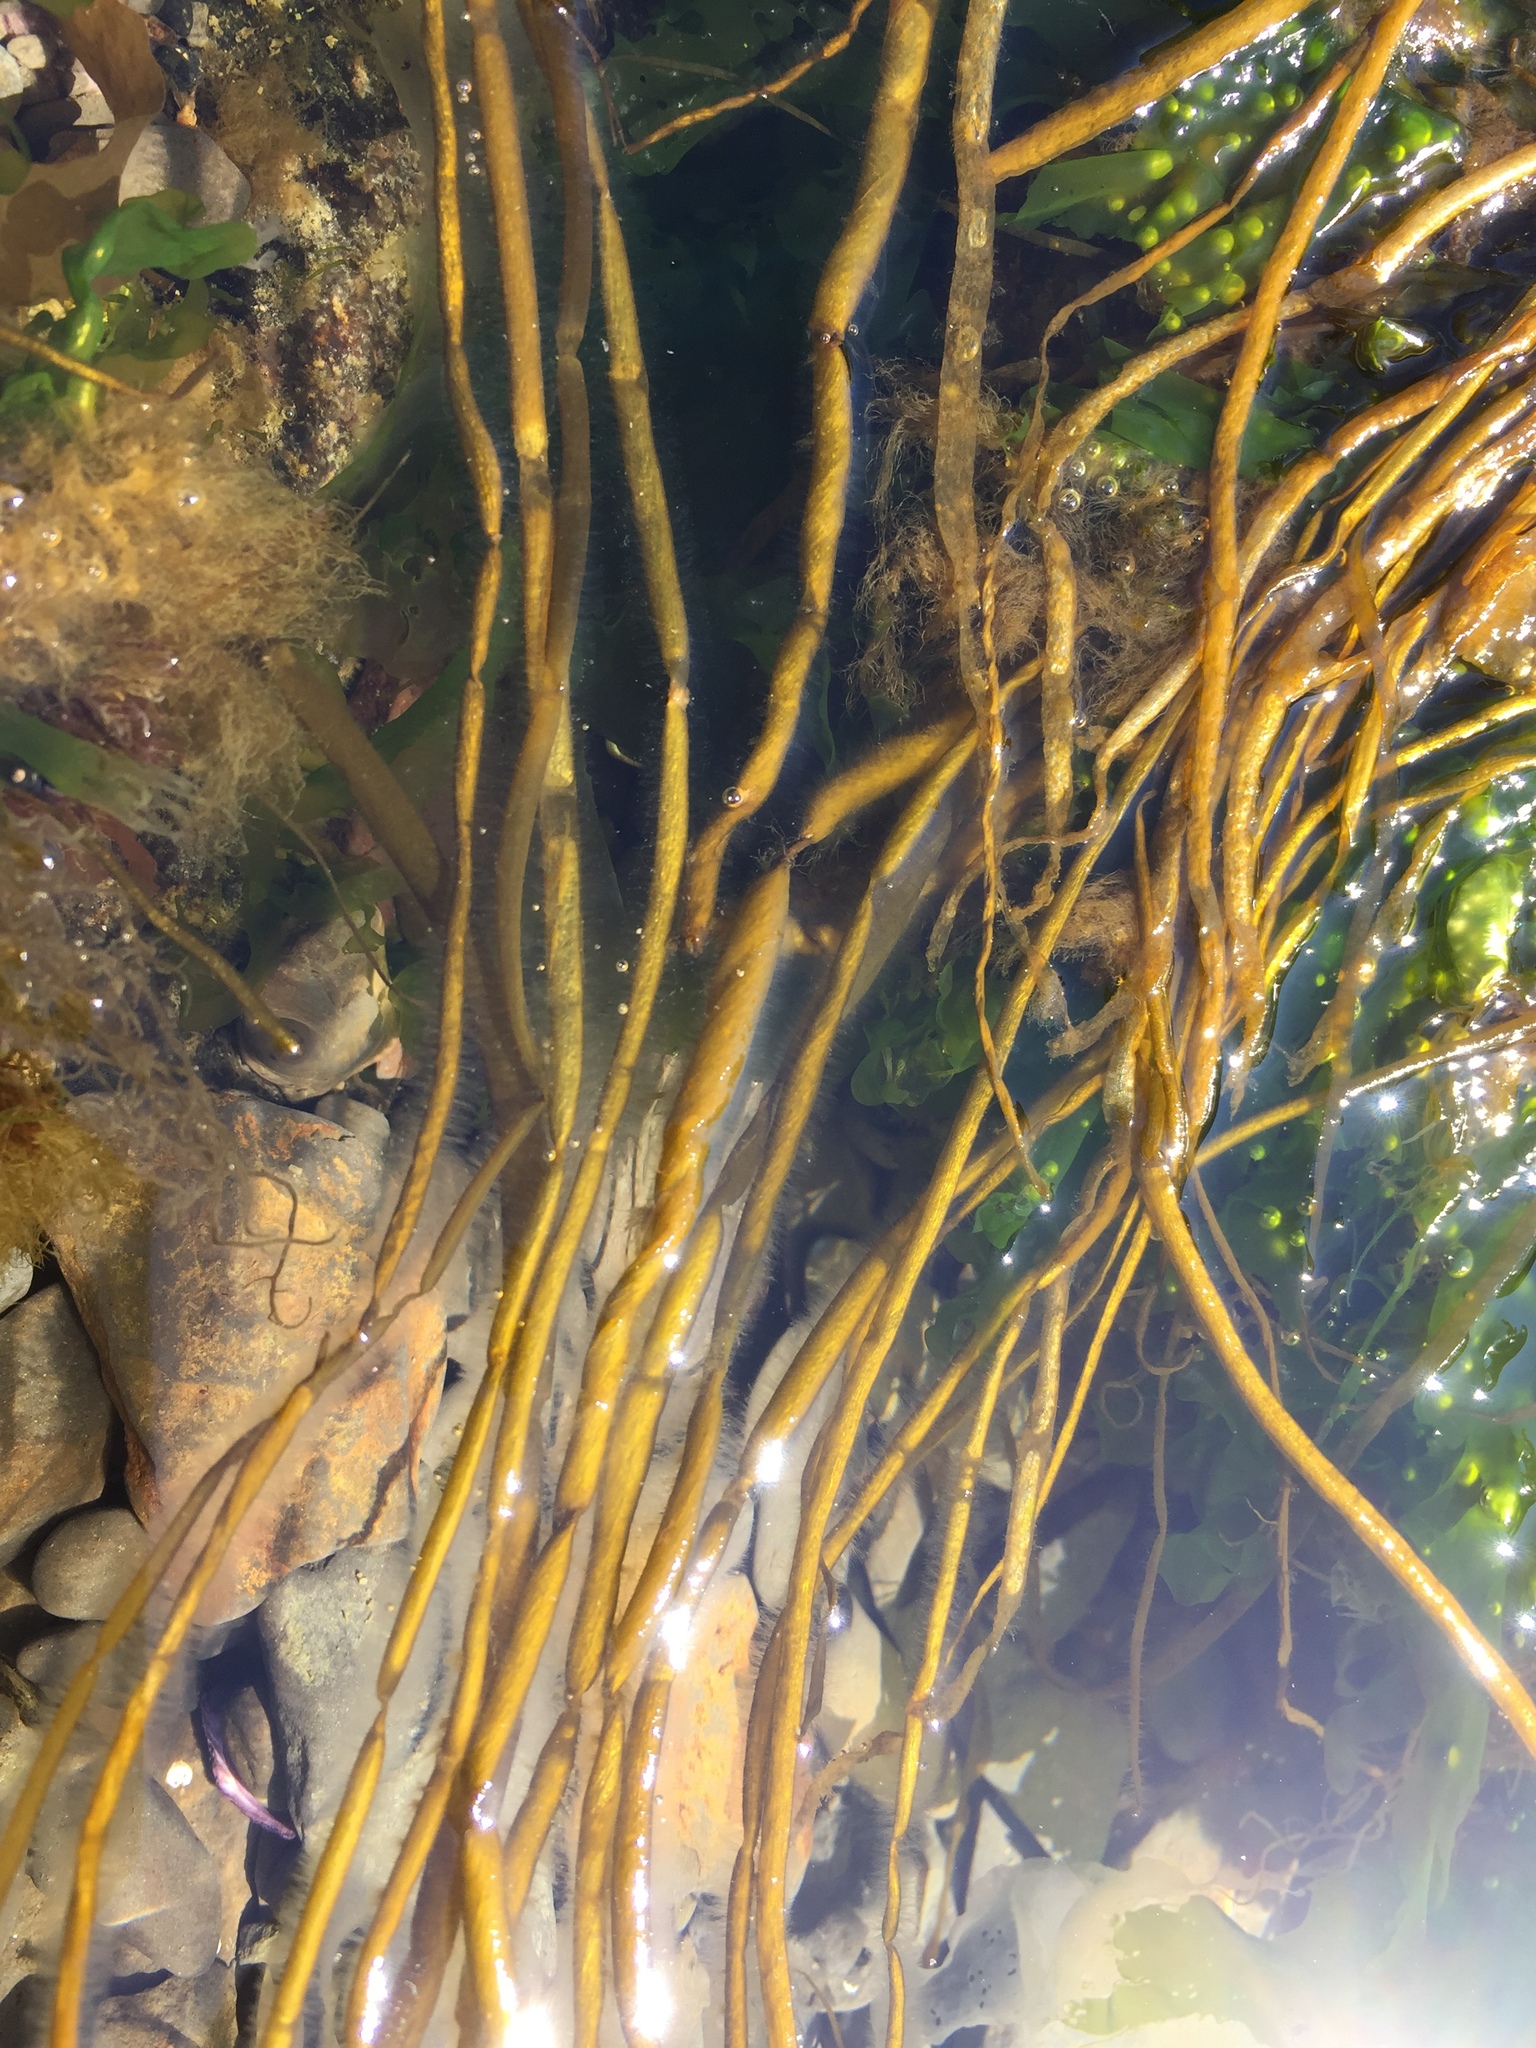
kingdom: Chromista
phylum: Ochrophyta
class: Phaeophyceae
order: Scytosiphonales
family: Scytosiphonaceae
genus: Scytosiphon
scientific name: Scytosiphon lomentaria
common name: Beanweed
